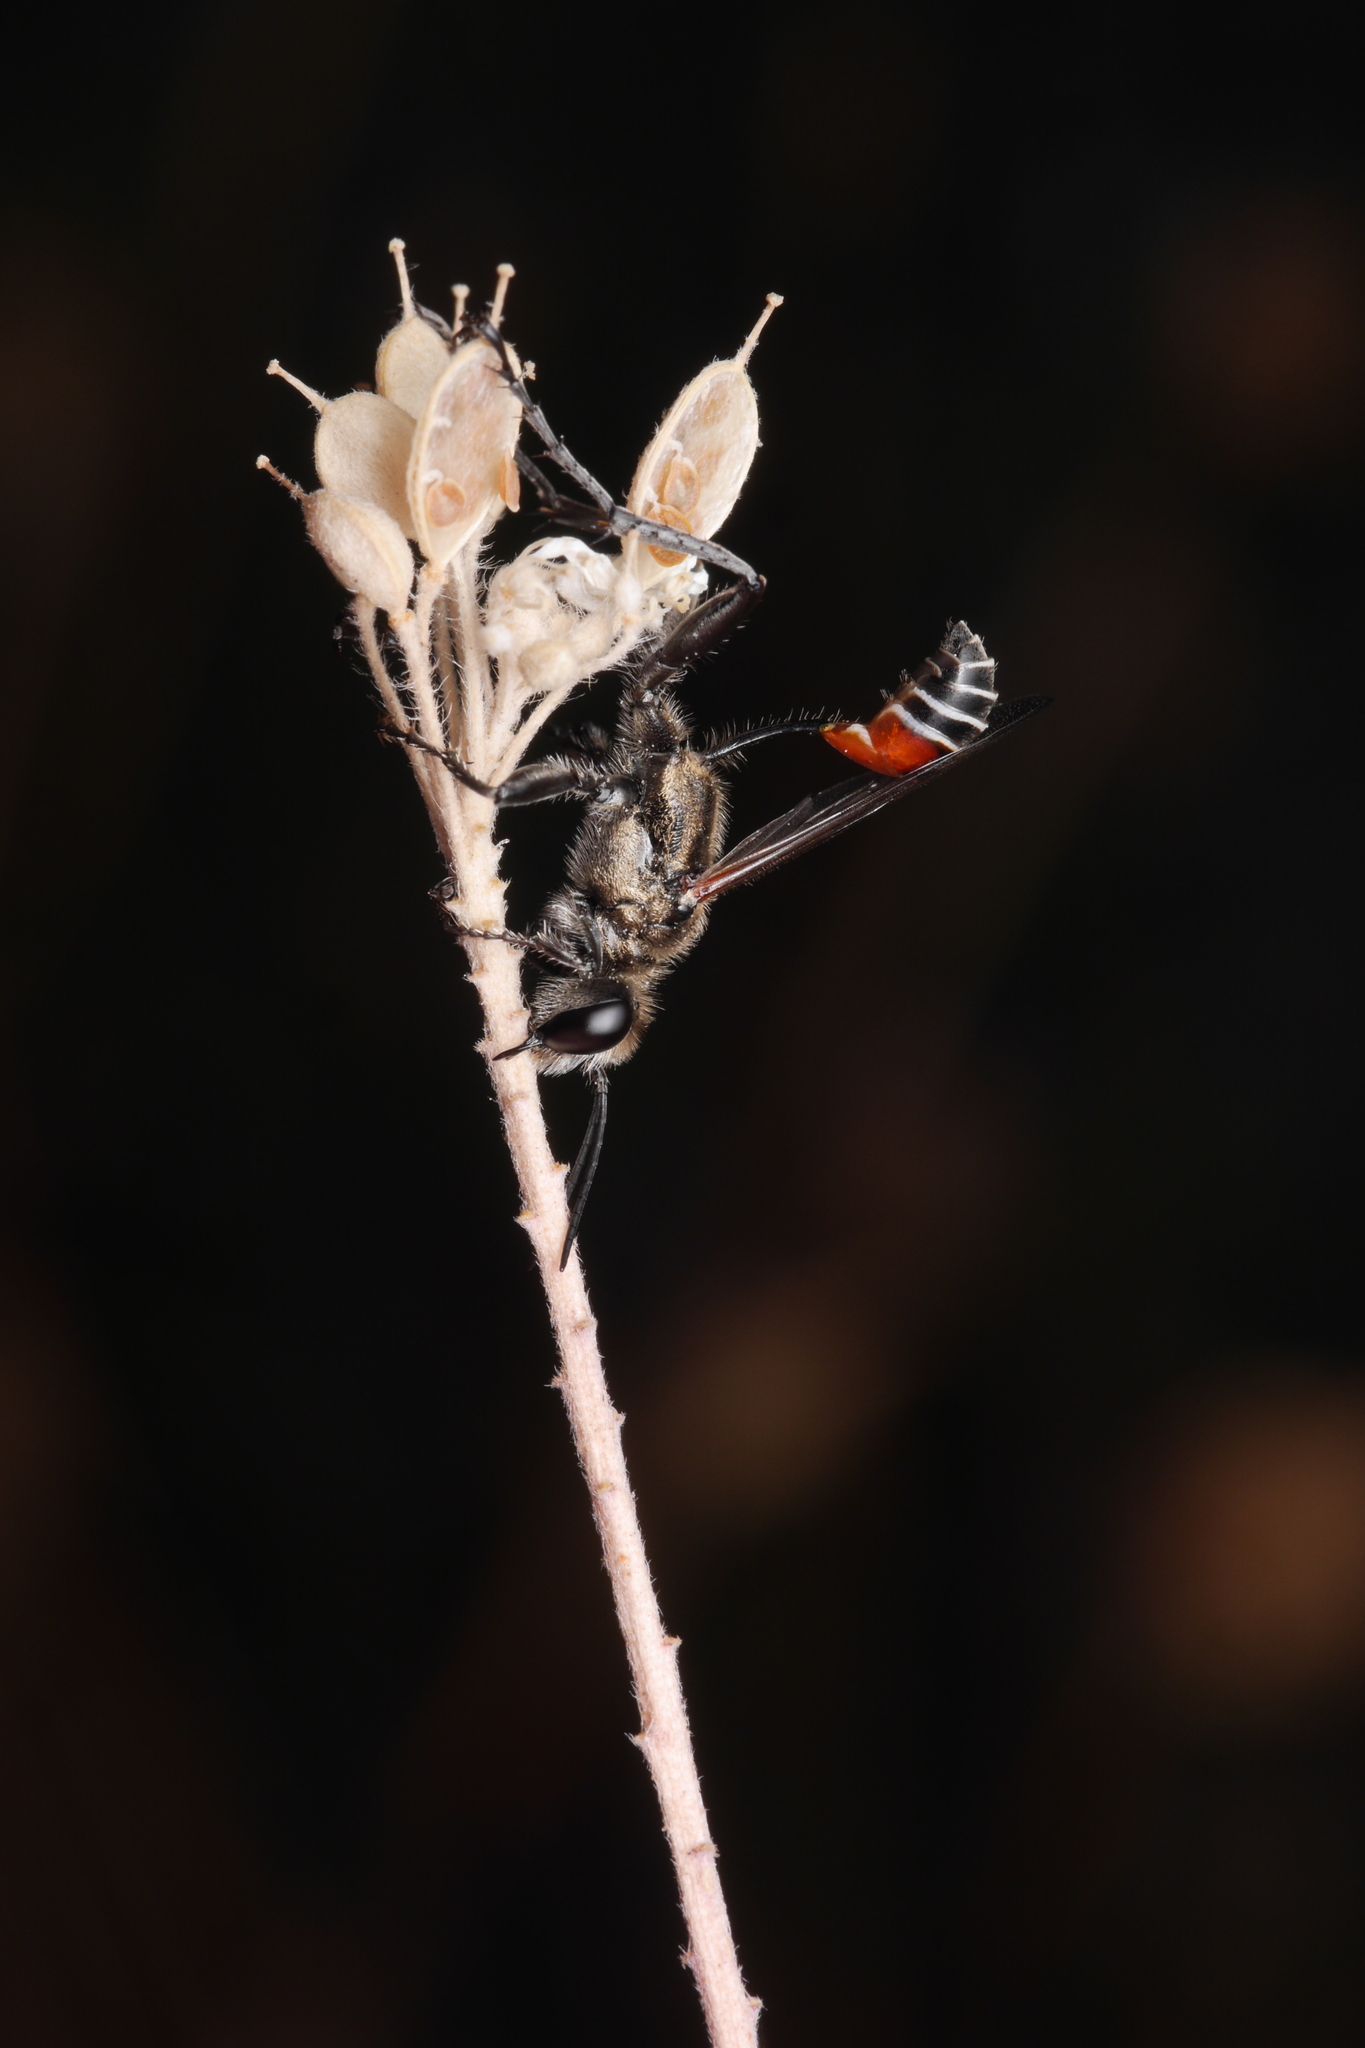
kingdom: Animalia
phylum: Arthropoda
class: Insecta
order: Hymenoptera
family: Sphecidae
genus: Prionyx
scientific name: Prionyx kirbii
